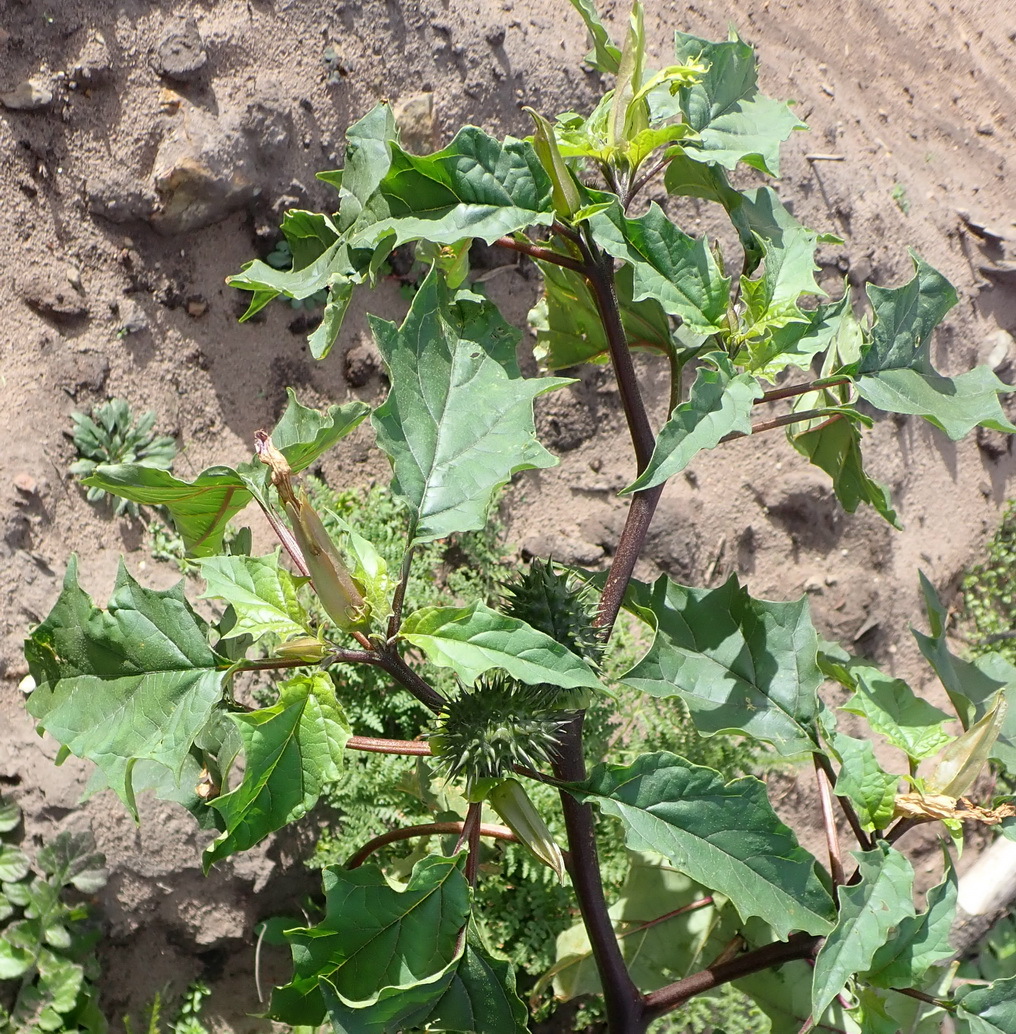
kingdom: Plantae
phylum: Tracheophyta
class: Magnoliopsida
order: Solanales
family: Solanaceae
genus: Datura
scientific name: Datura stramonium
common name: Thorn-apple
